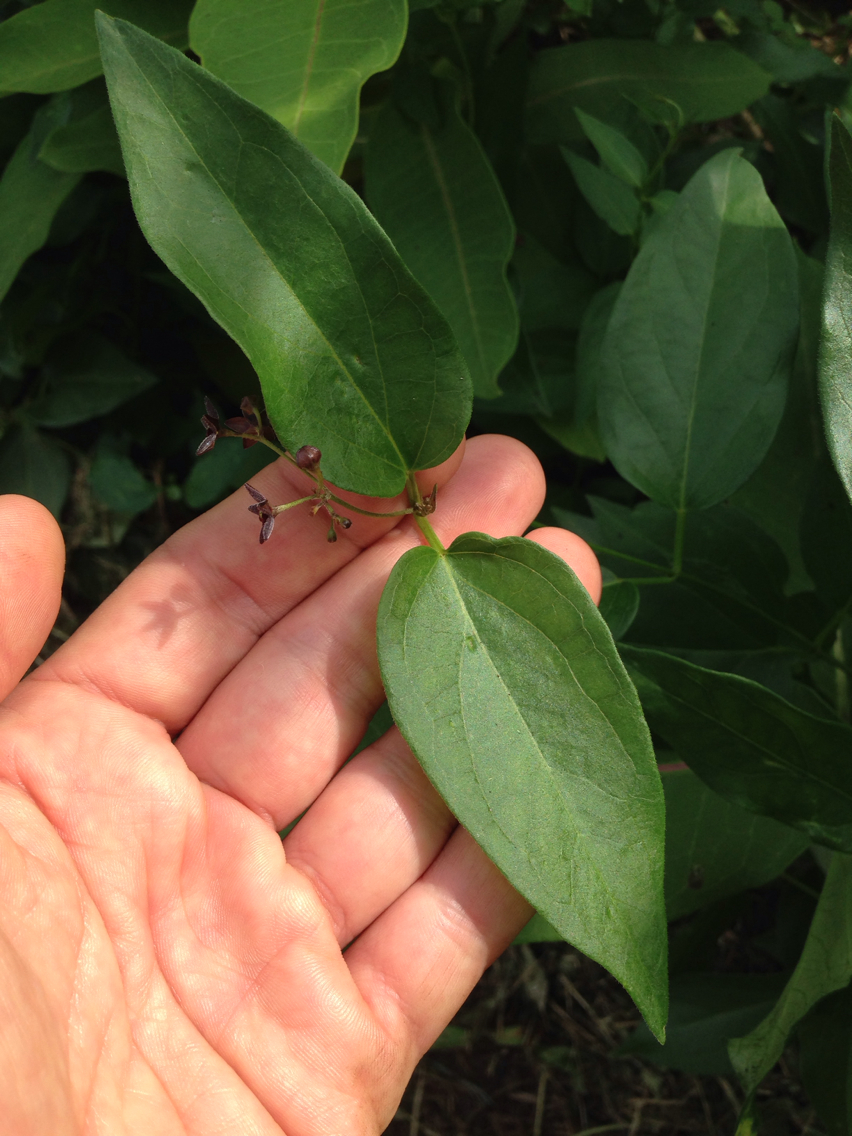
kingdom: Plantae
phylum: Tracheophyta
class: Magnoliopsida
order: Gentianales
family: Apocynaceae
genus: Vincetoxicum
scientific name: Vincetoxicum nigrum
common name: Black swallow-wort
